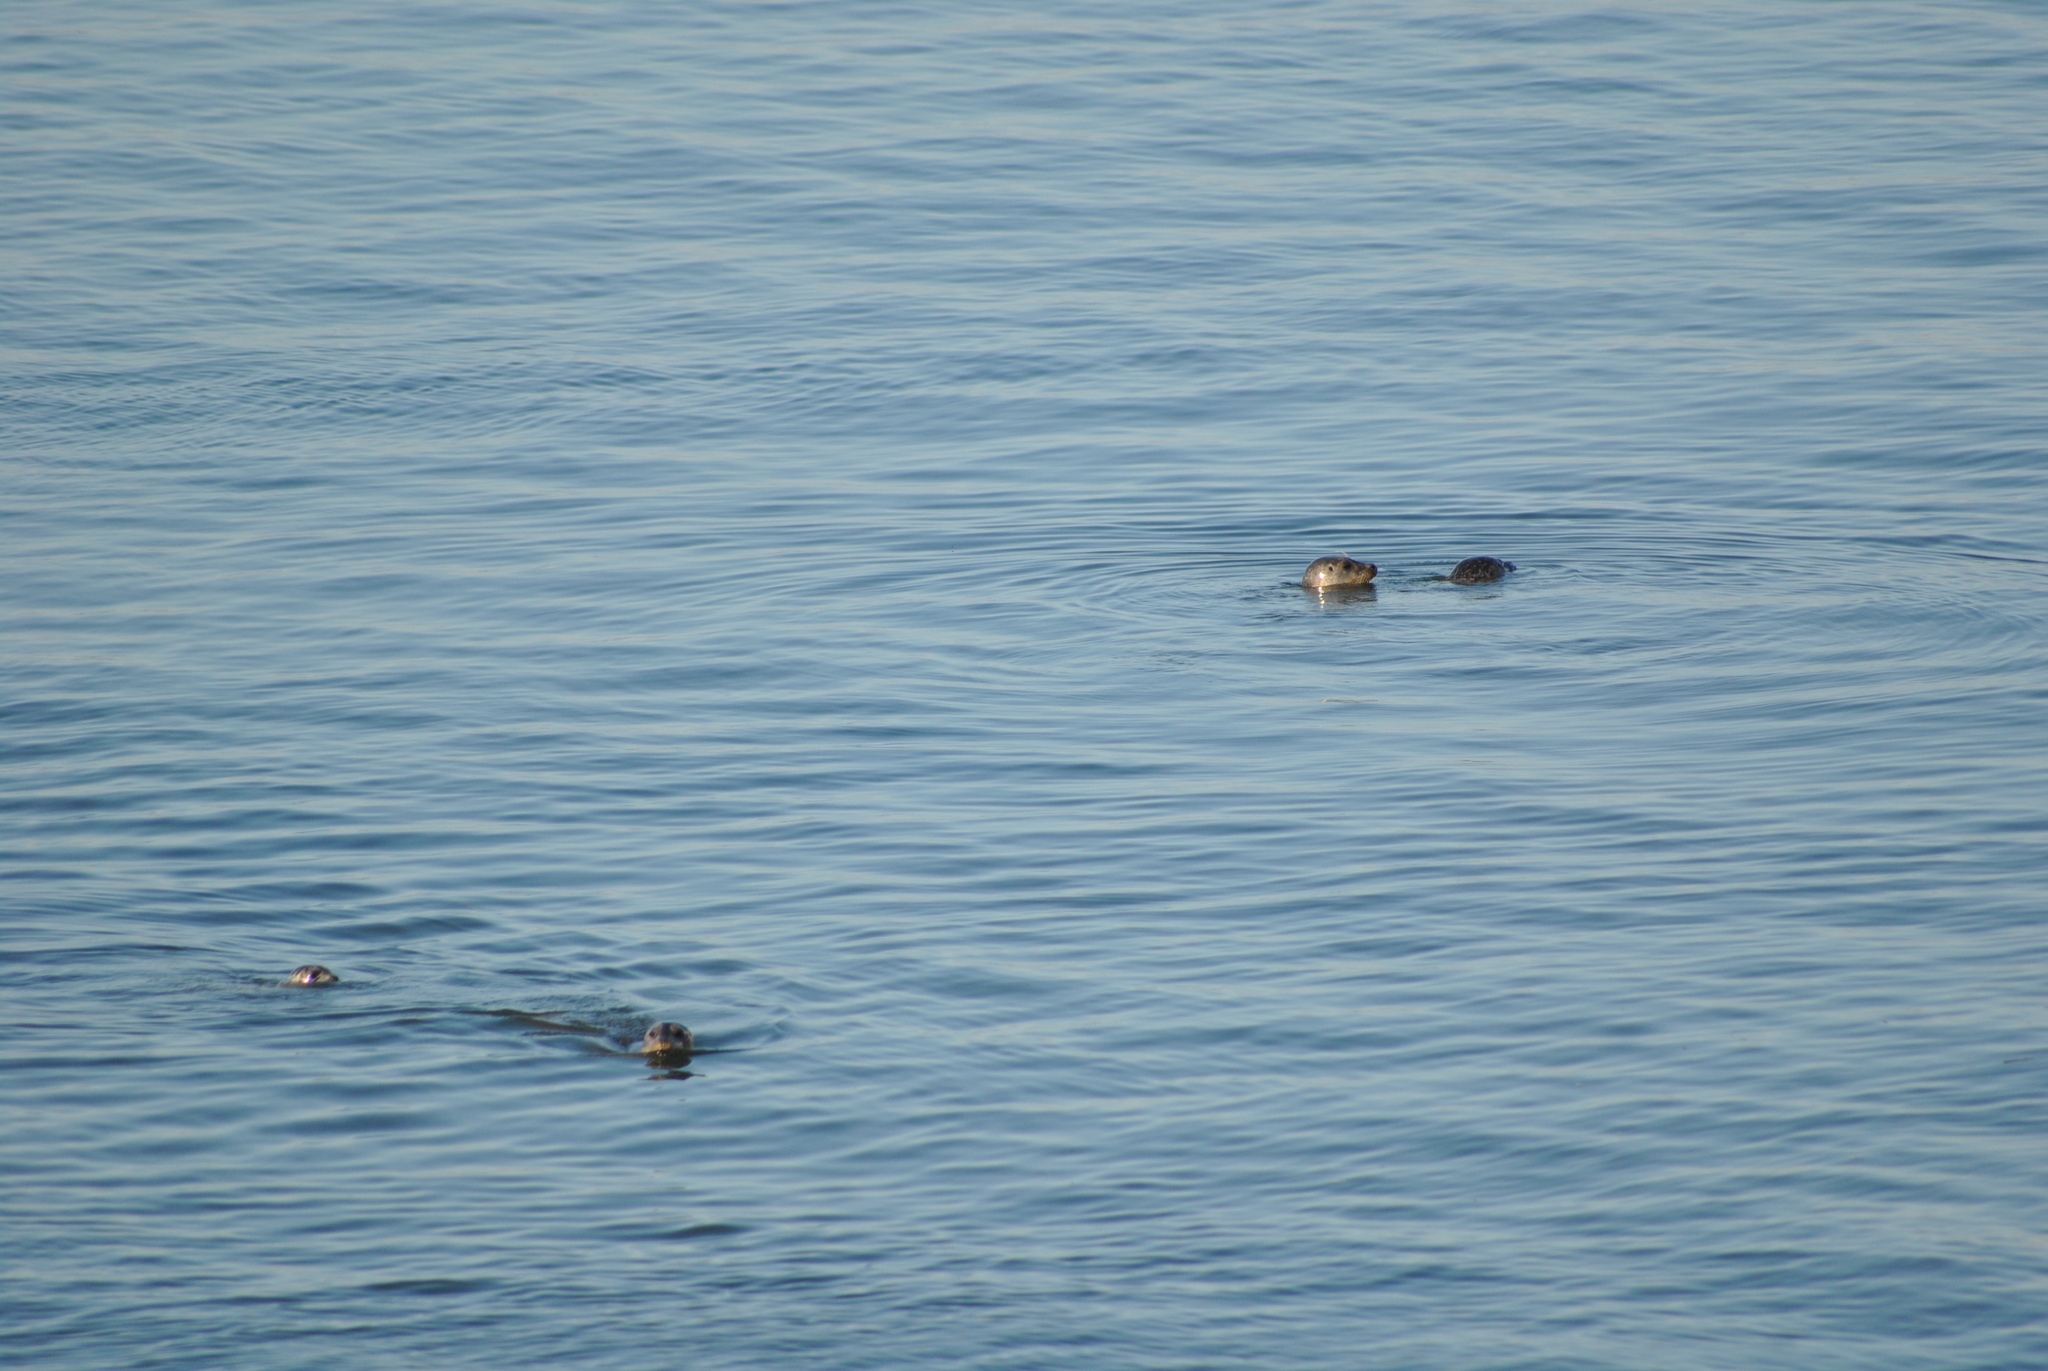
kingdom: Animalia
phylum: Chordata
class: Mammalia
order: Carnivora
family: Phocidae
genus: Phoca
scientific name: Phoca vitulina
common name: Harbor seal
